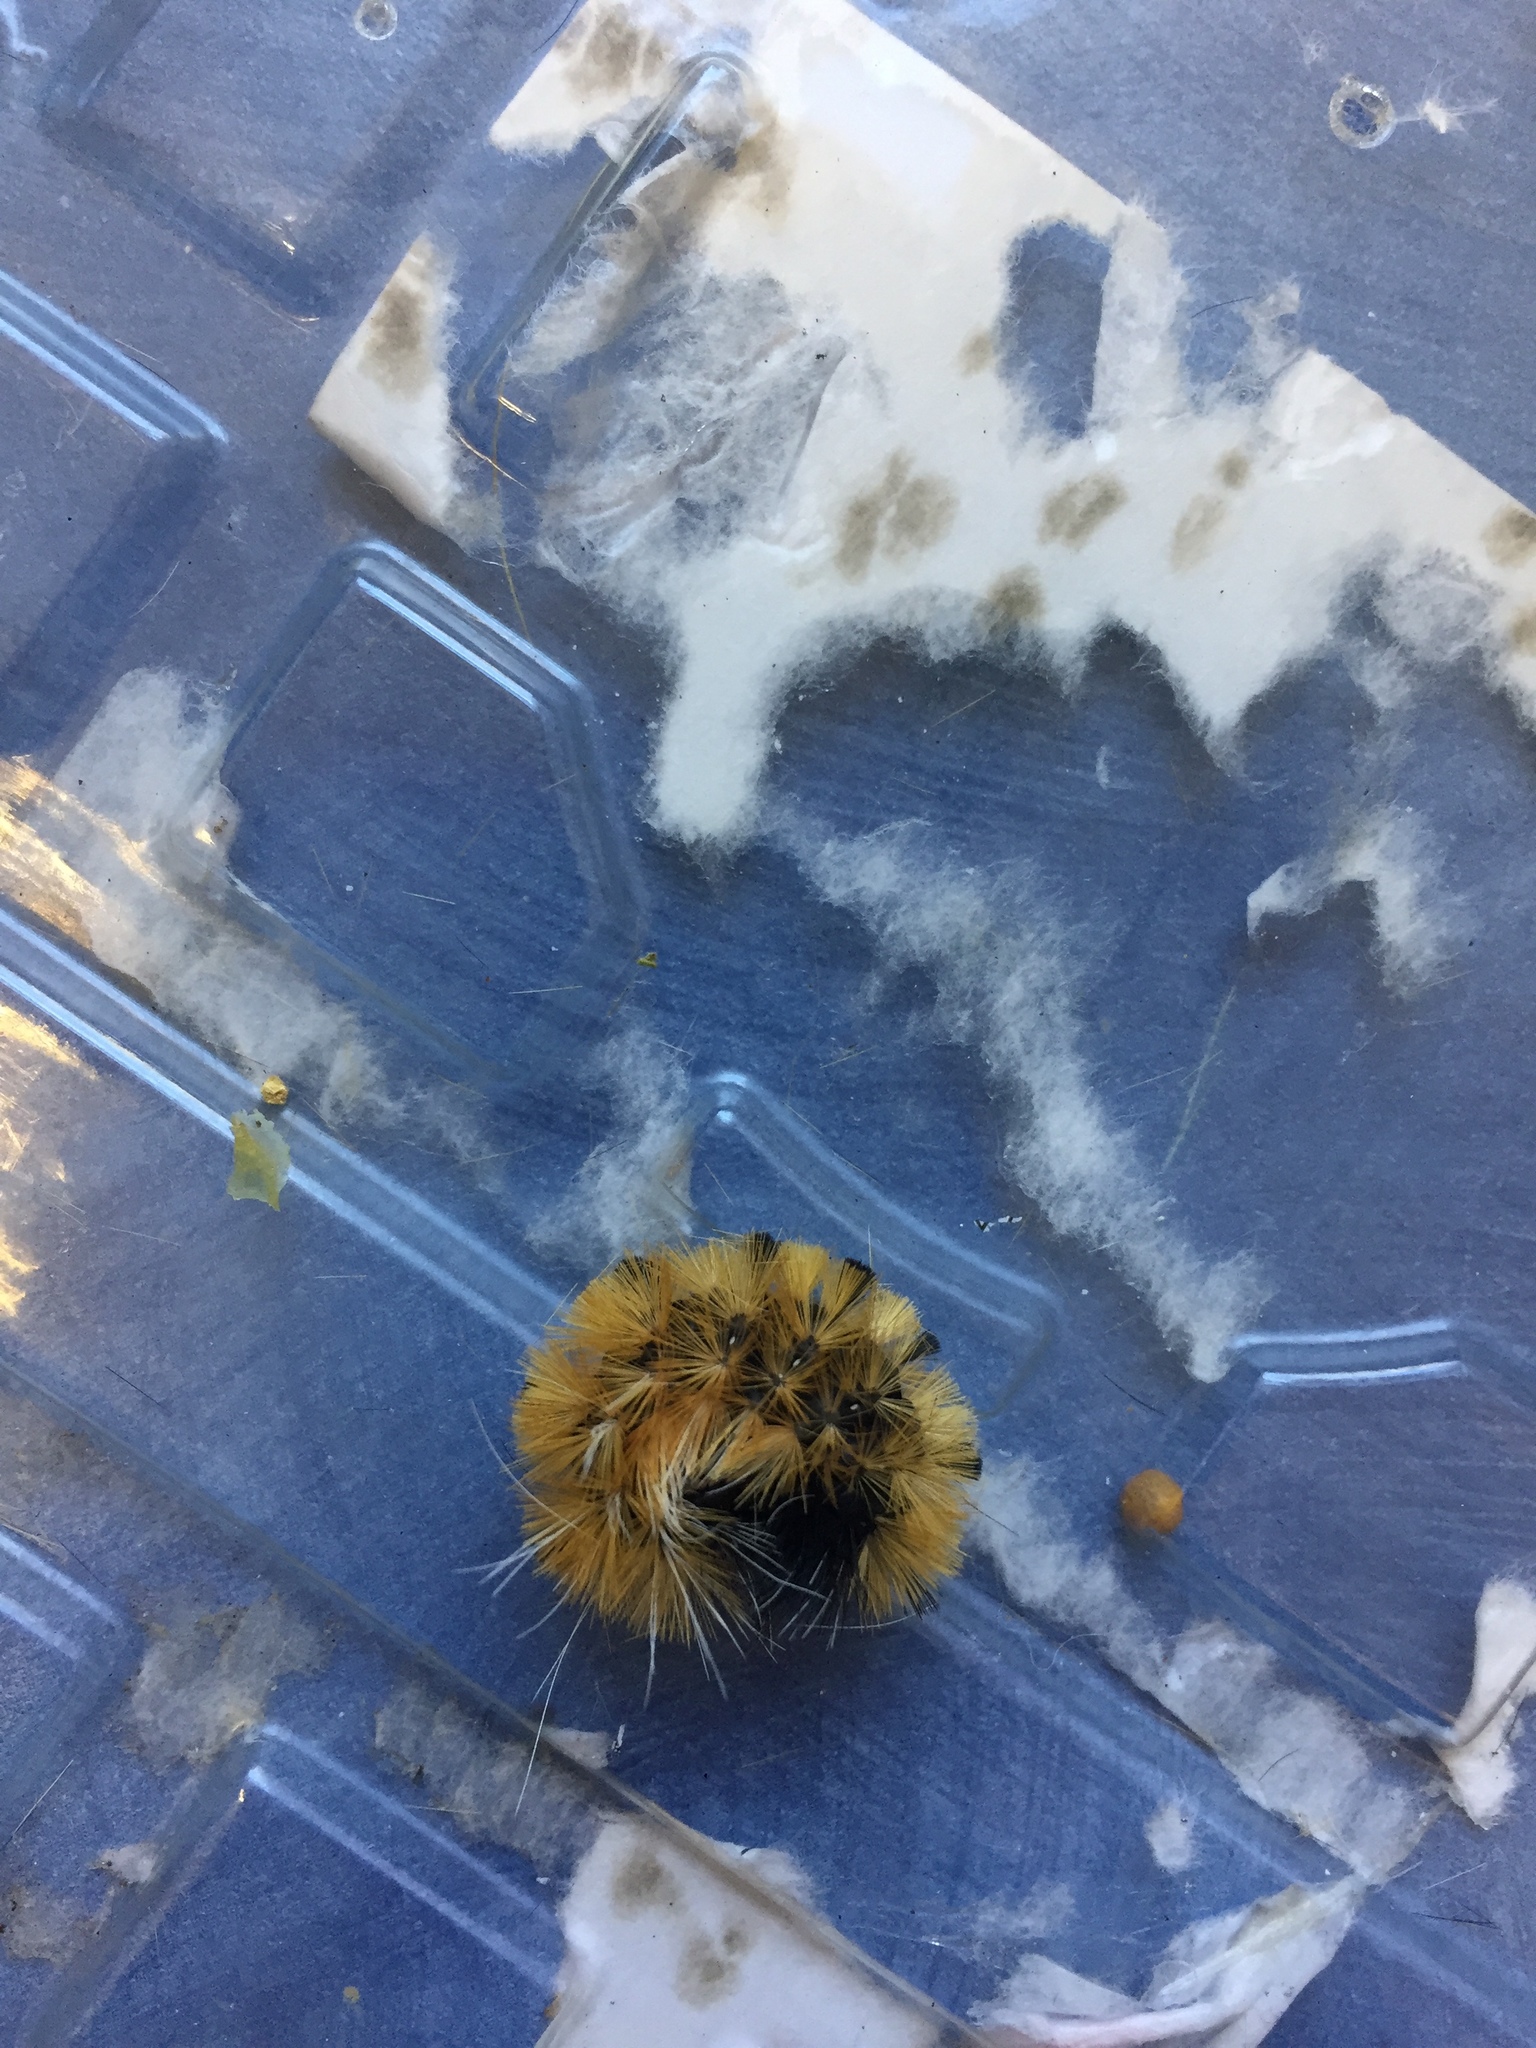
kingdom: Animalia
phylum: Arthropoda
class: Insecta
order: Lepidoptera
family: Erebidae
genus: Lophocampa
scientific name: Lophocampa maculata
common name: Spotted tussock moth
